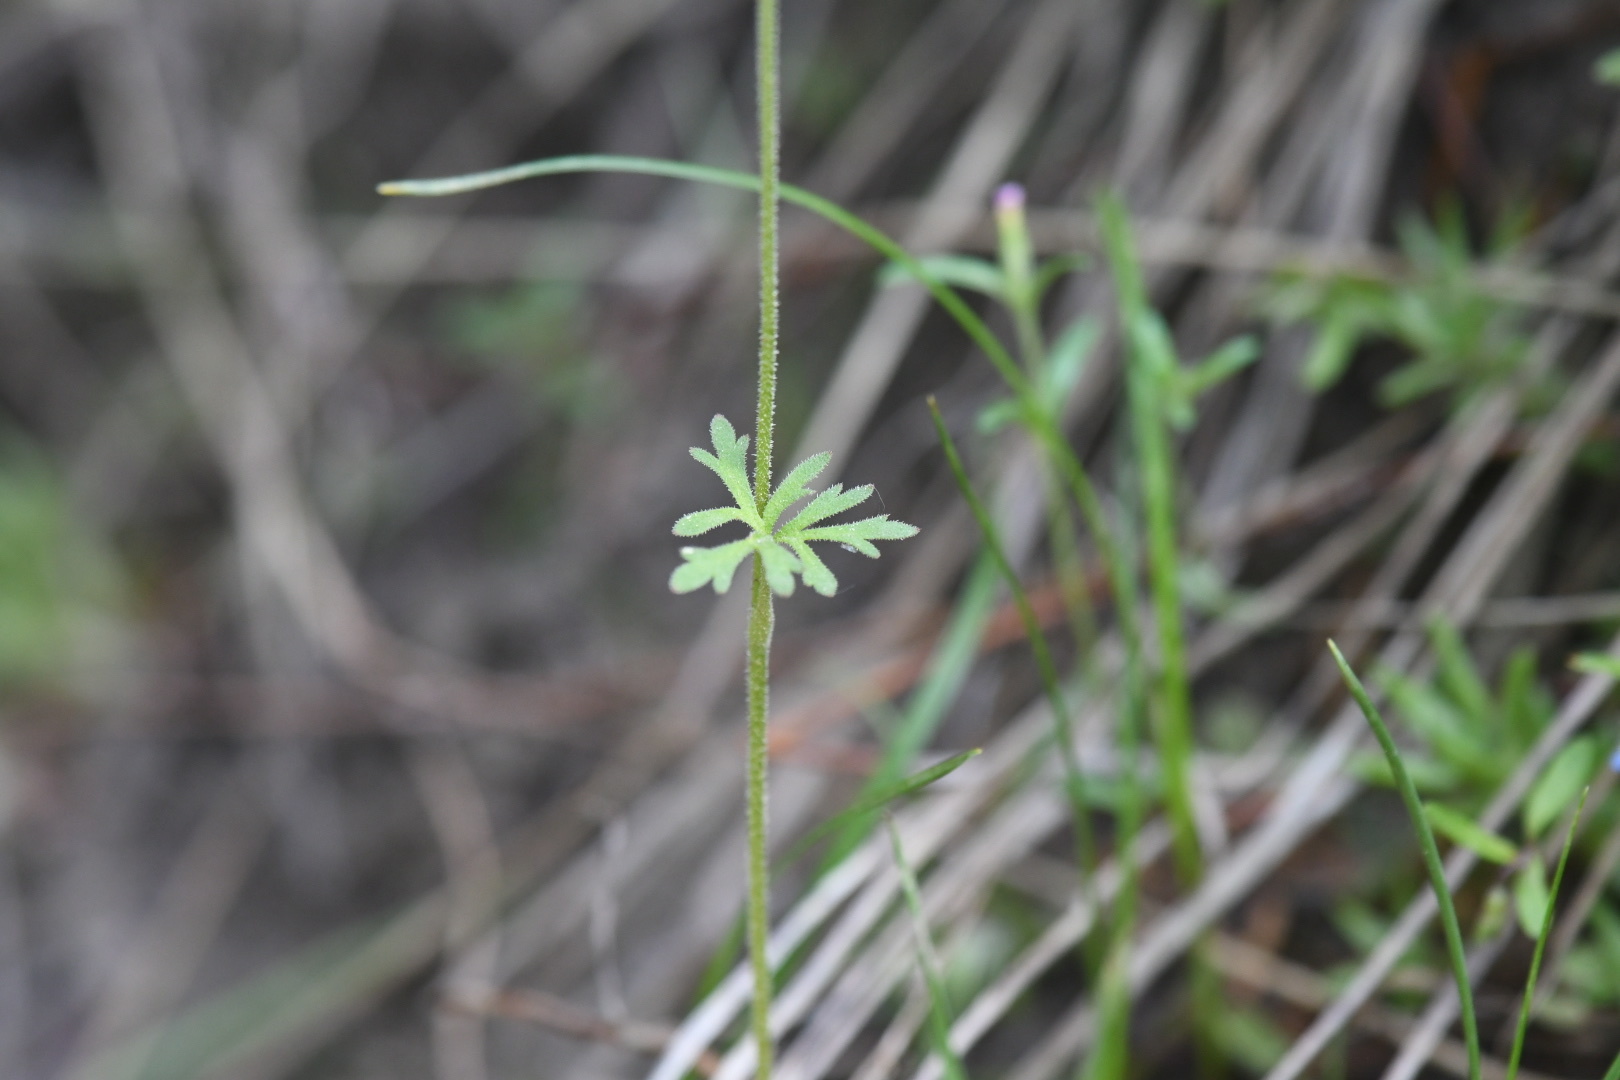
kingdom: Plantae
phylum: Tracheophyta
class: Magnoliopsida
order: Saxifragales
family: Saxifragaceae
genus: Lithophragma
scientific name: Lithophragma parviflorum
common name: Small-flowered fringe-cup
